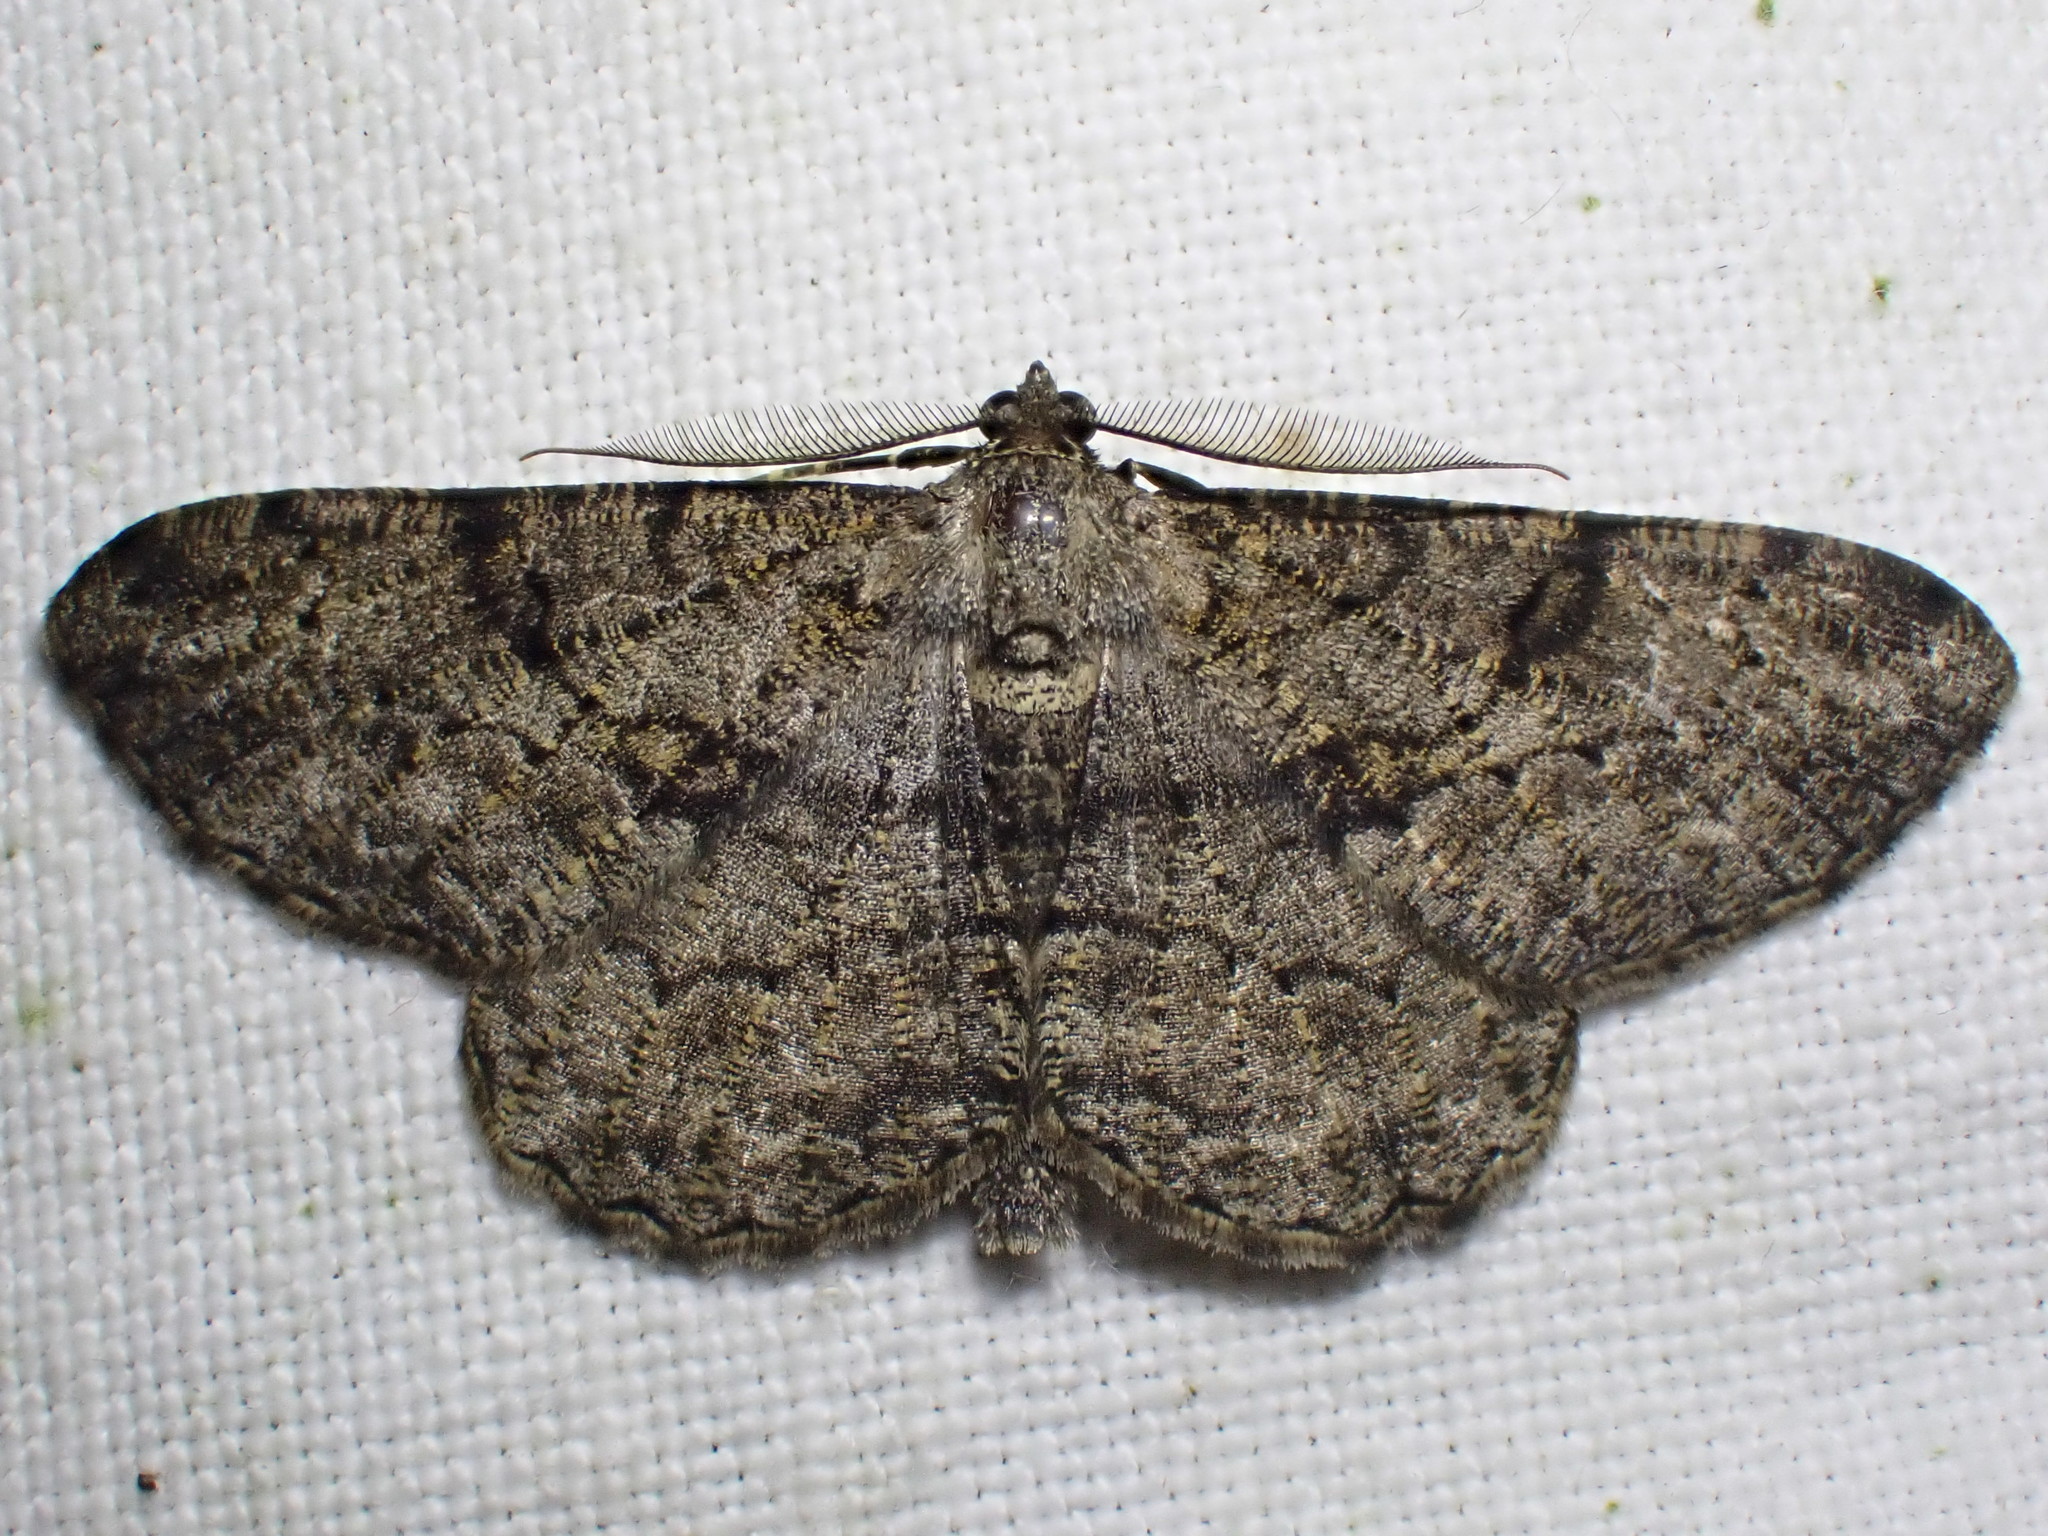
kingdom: Animalia
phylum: Arthropoda
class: Insecta
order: Lepidoptera
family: Geometridae
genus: Peribatodes
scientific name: Peribatodes rhomboidaria
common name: Willow beauty
